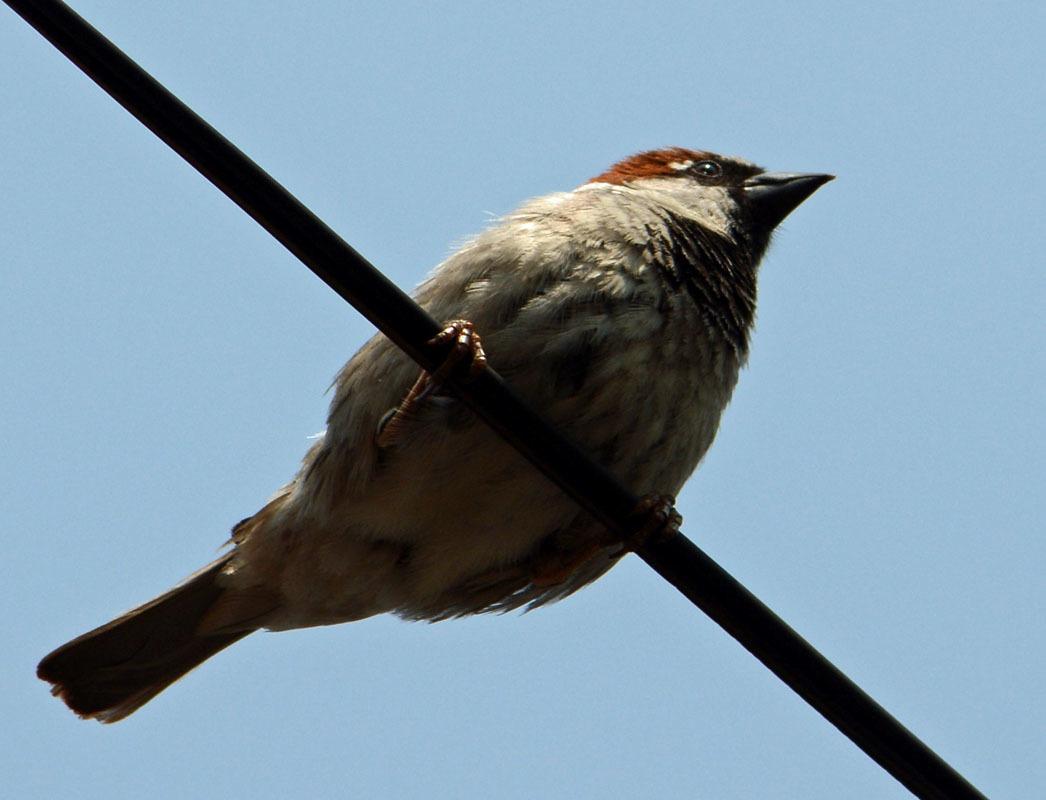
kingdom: Animalia
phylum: Chordata
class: Aves
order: Passeriformes
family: Passeridae
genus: Passer
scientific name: Passer domesticus
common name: House sparrow
